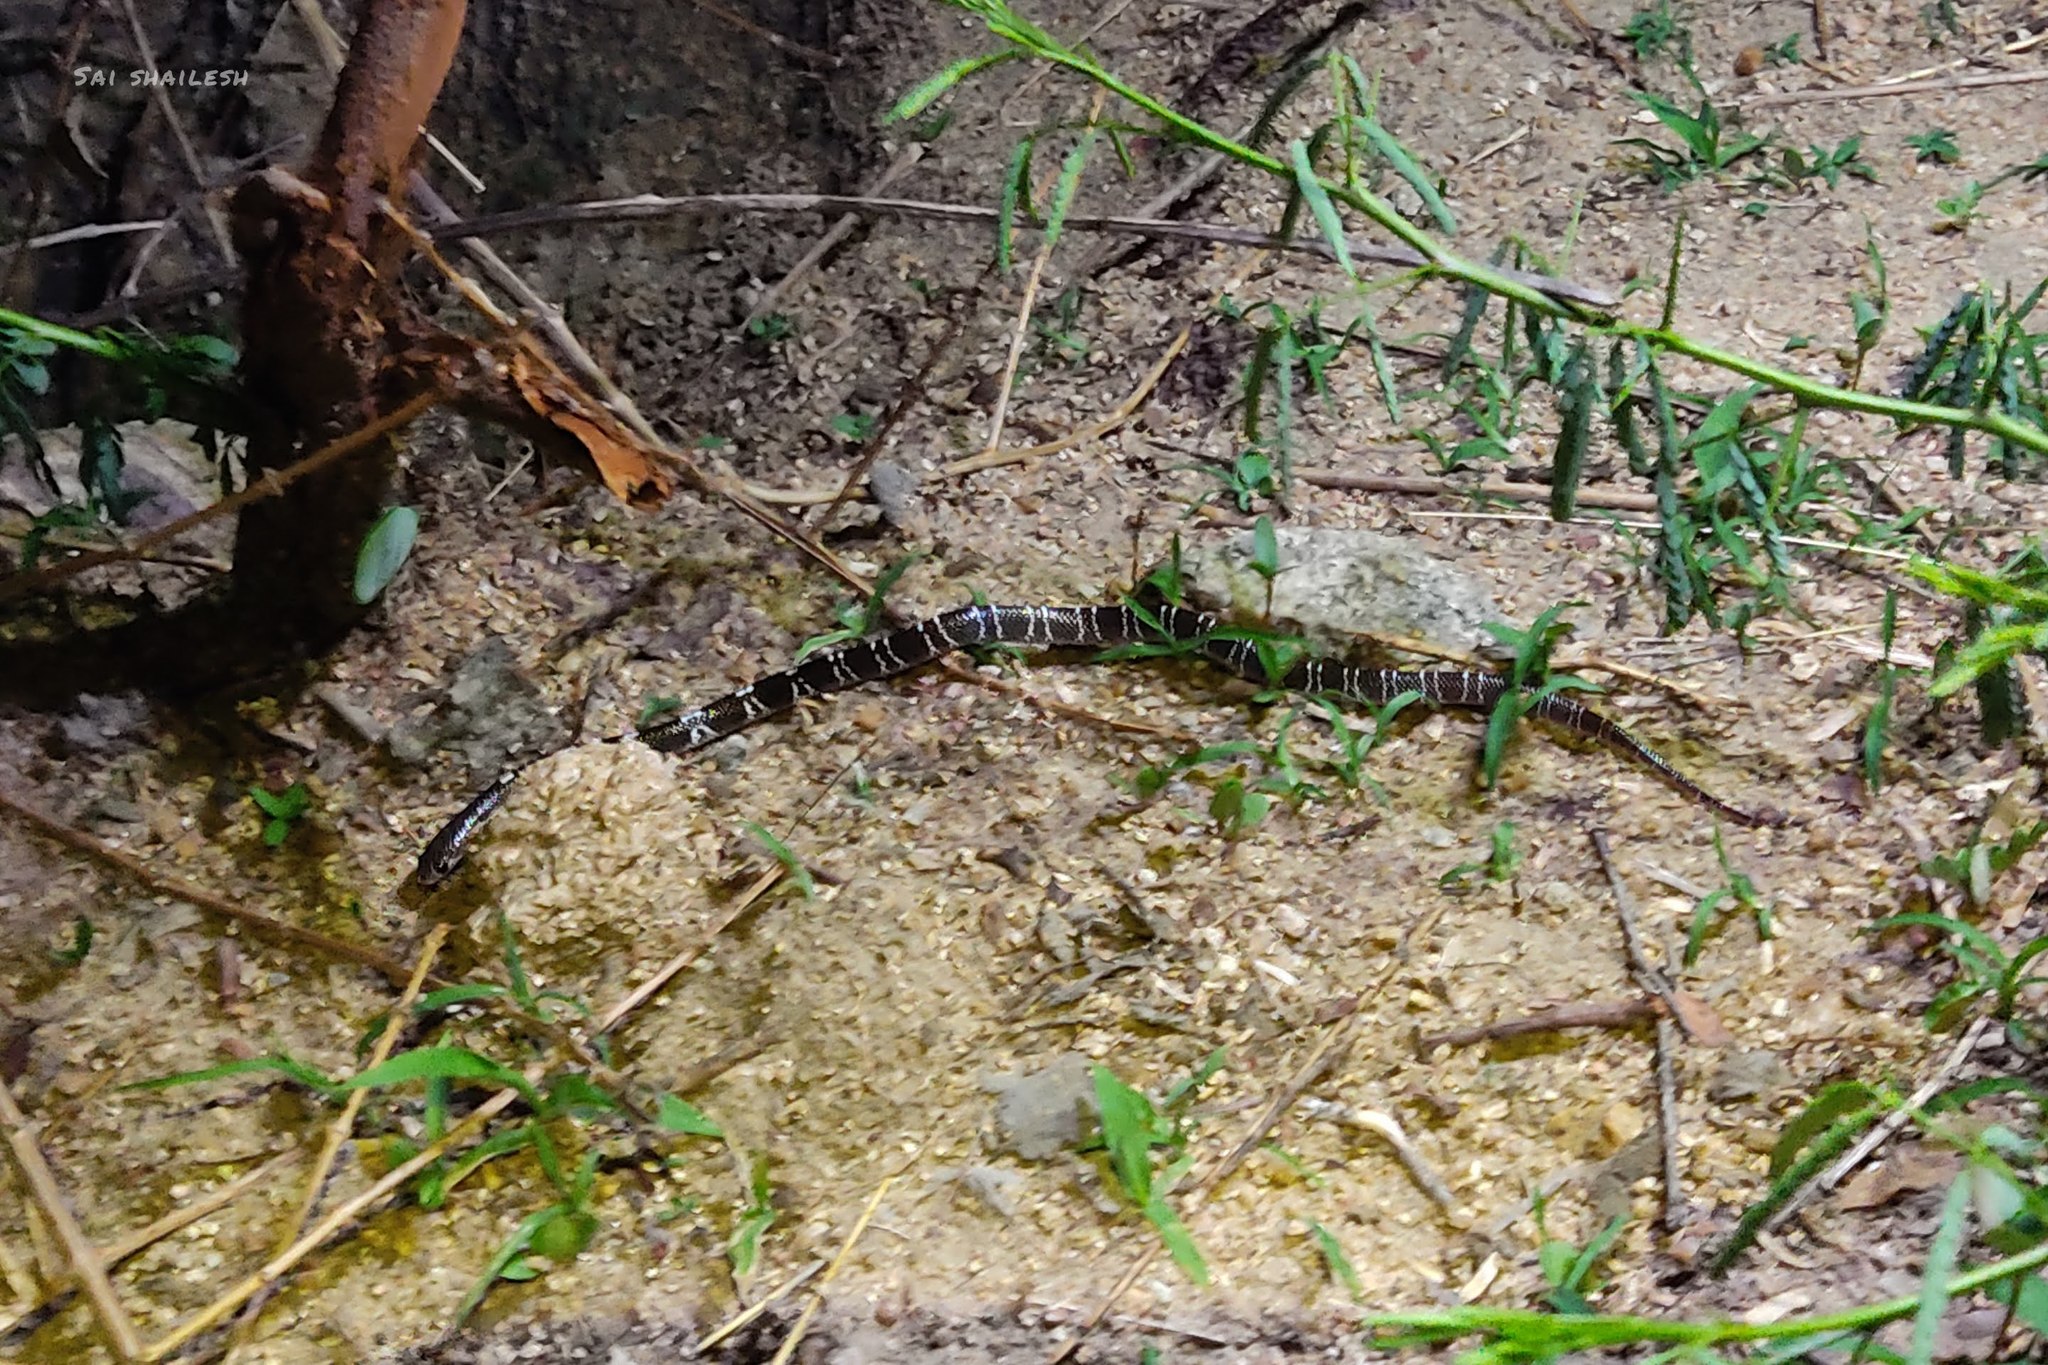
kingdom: Animalia
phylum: Chordata
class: Squamata
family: Elapidae
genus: Bungarus
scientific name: Bungarus caeruleus
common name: Common krait
